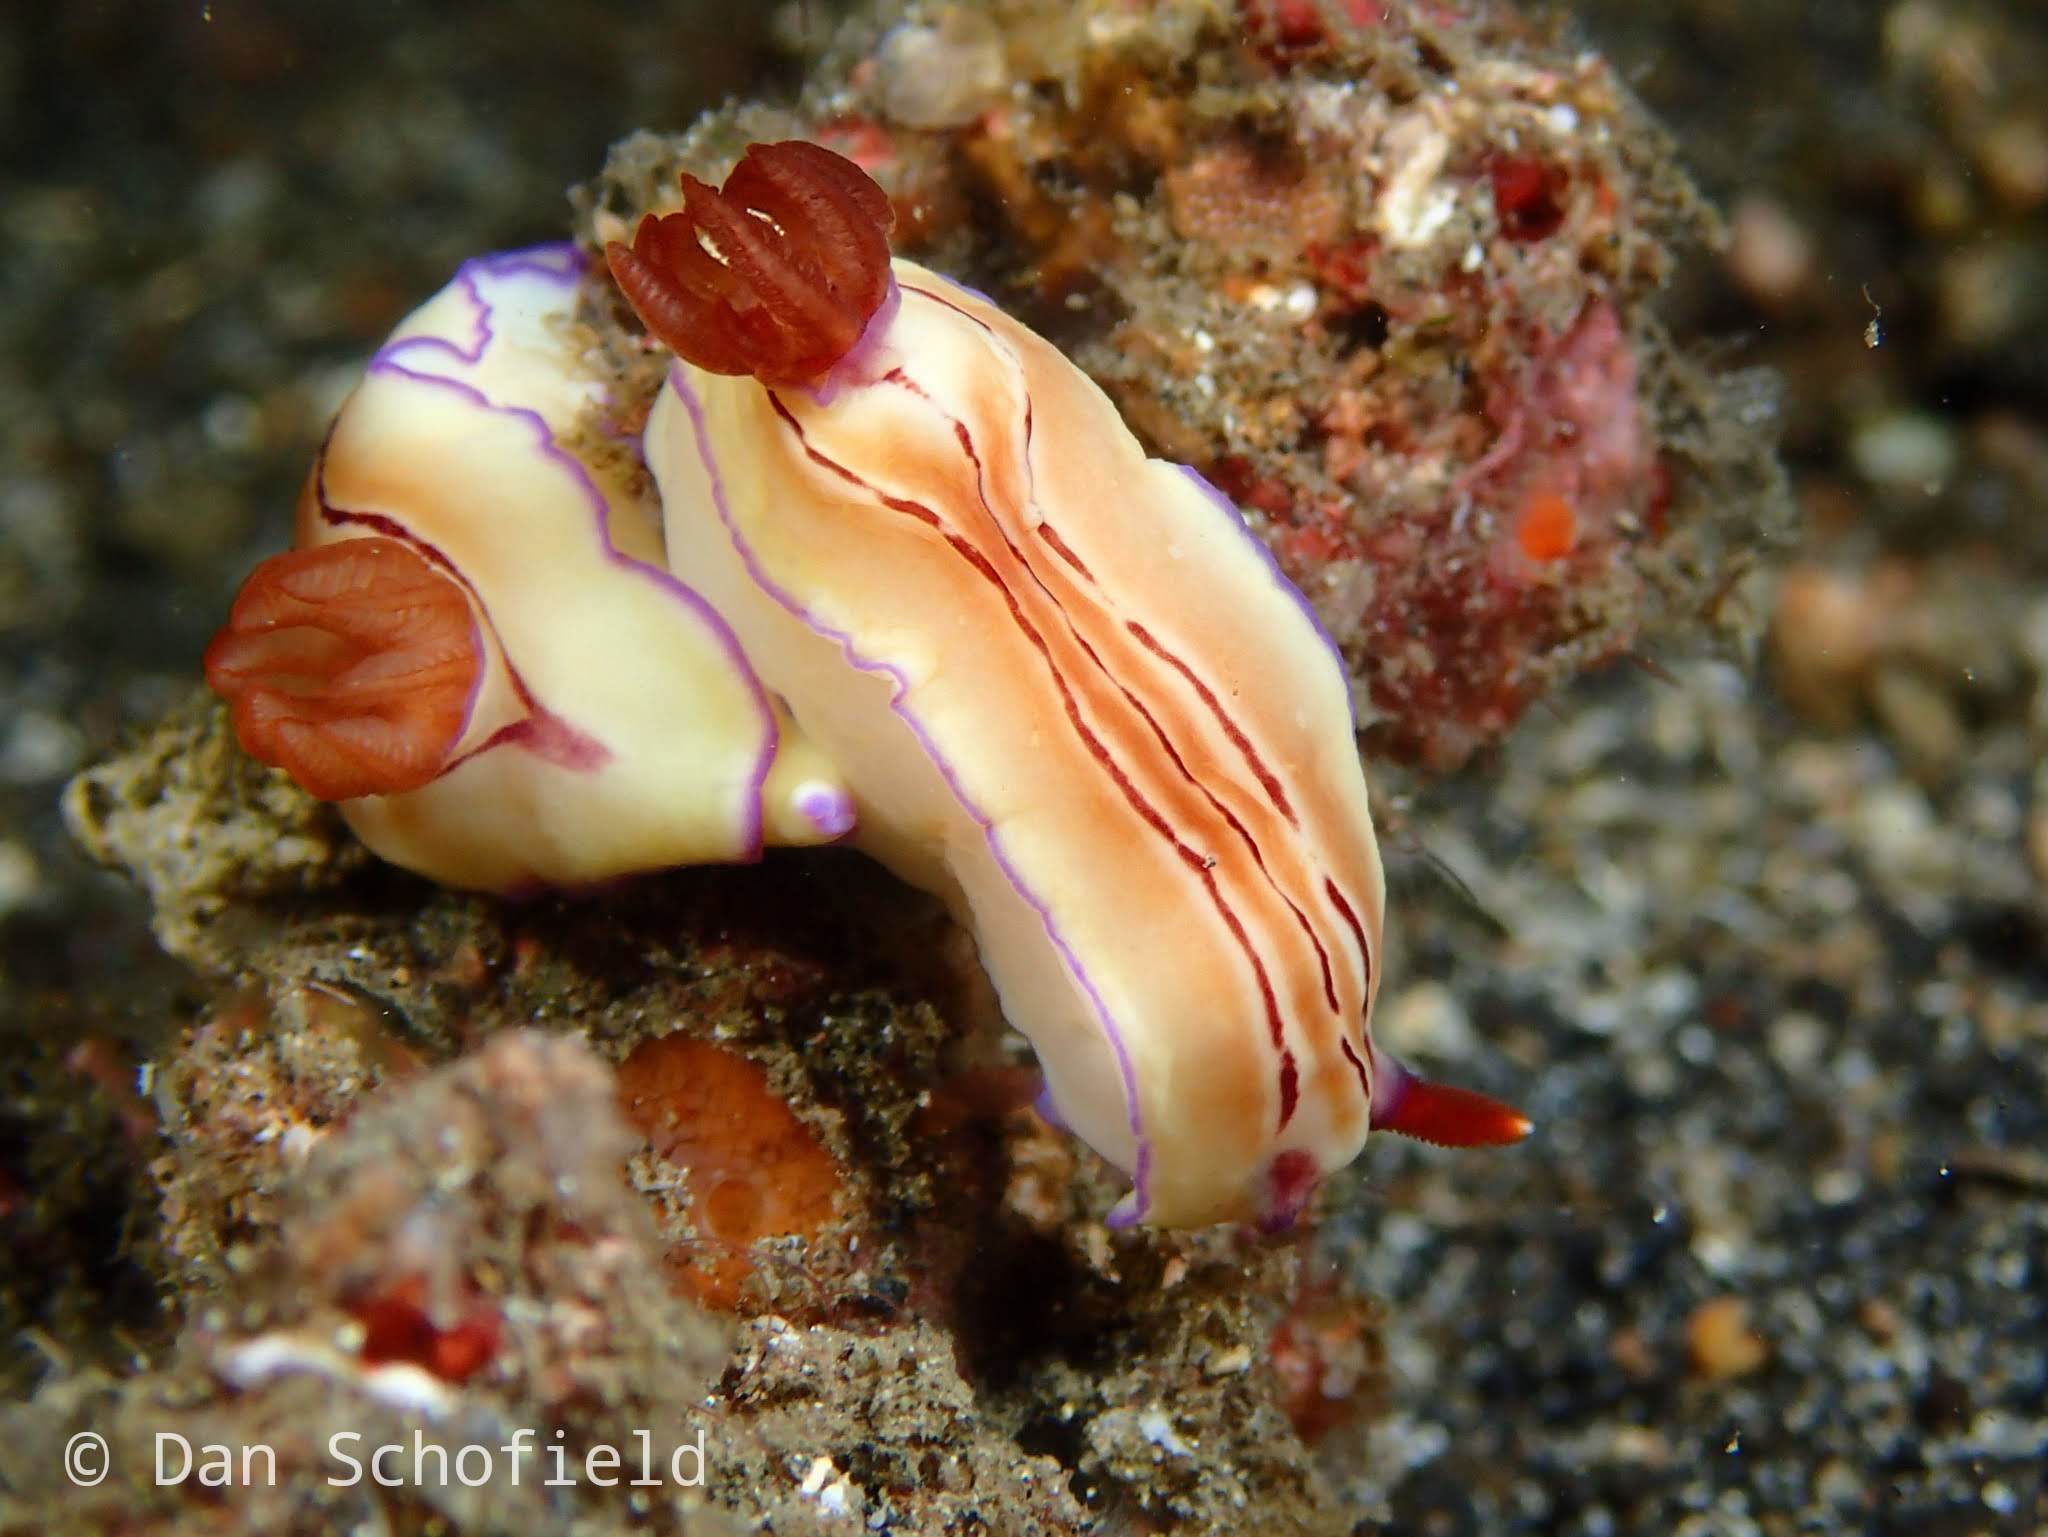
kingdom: Animalia
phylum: Mollusca
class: Gastropoda
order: Nudibranchia
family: Chromodorididae
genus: Hypselodoris
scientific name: Hypselodoris emma
